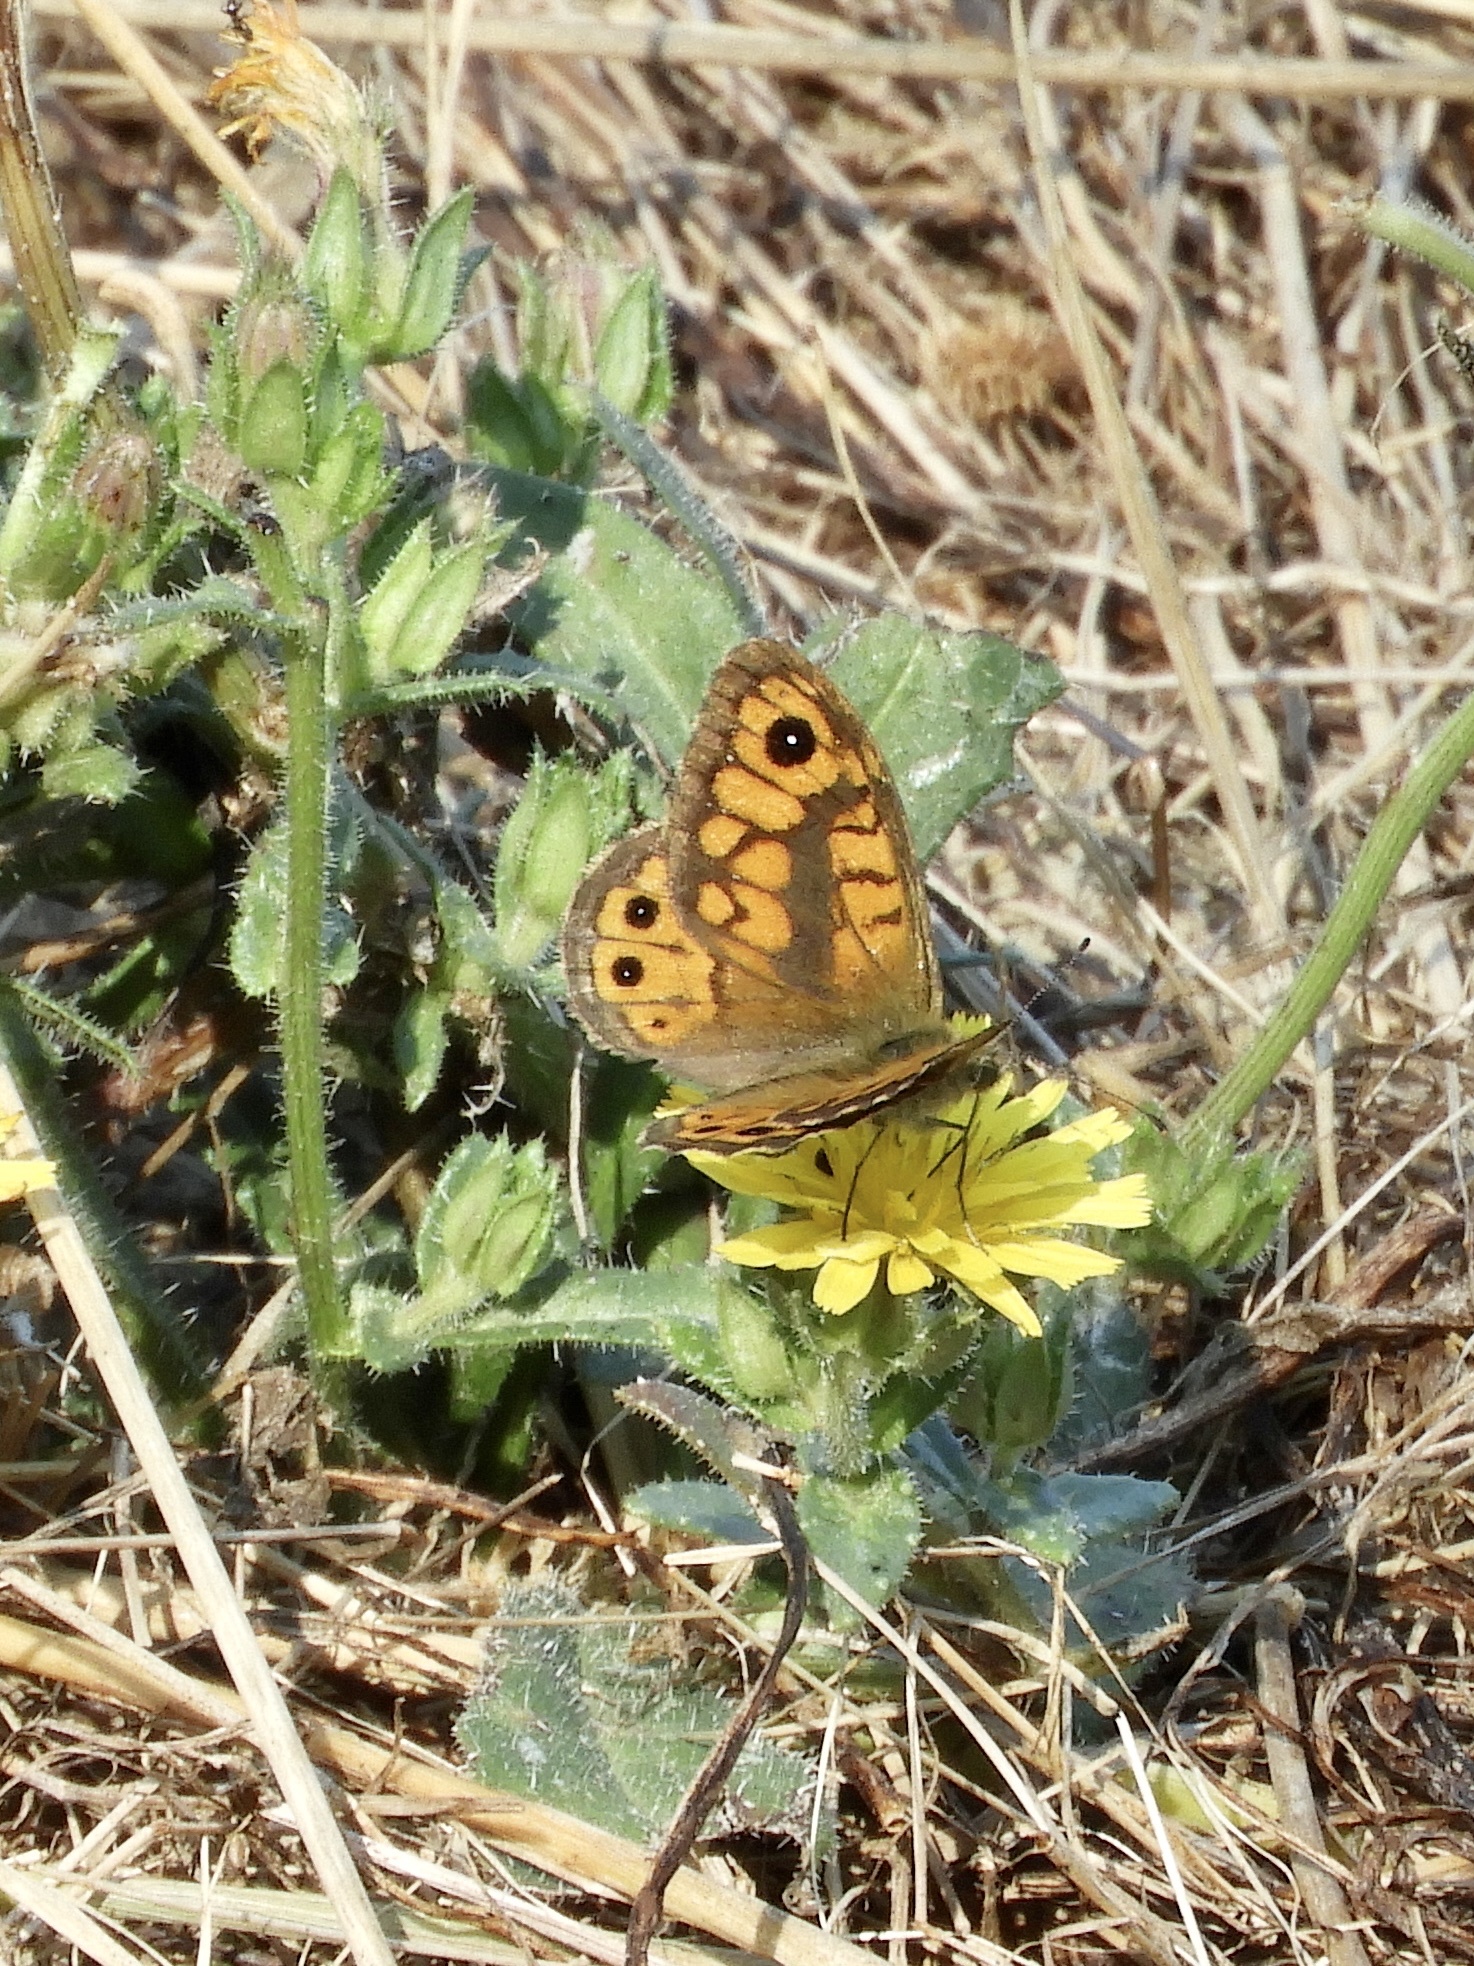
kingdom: Animalia
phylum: Arthropoda
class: Insecta
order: Lepidoptera
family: Nymphalidae
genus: Pararge
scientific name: Pararge Lasiommata megera
